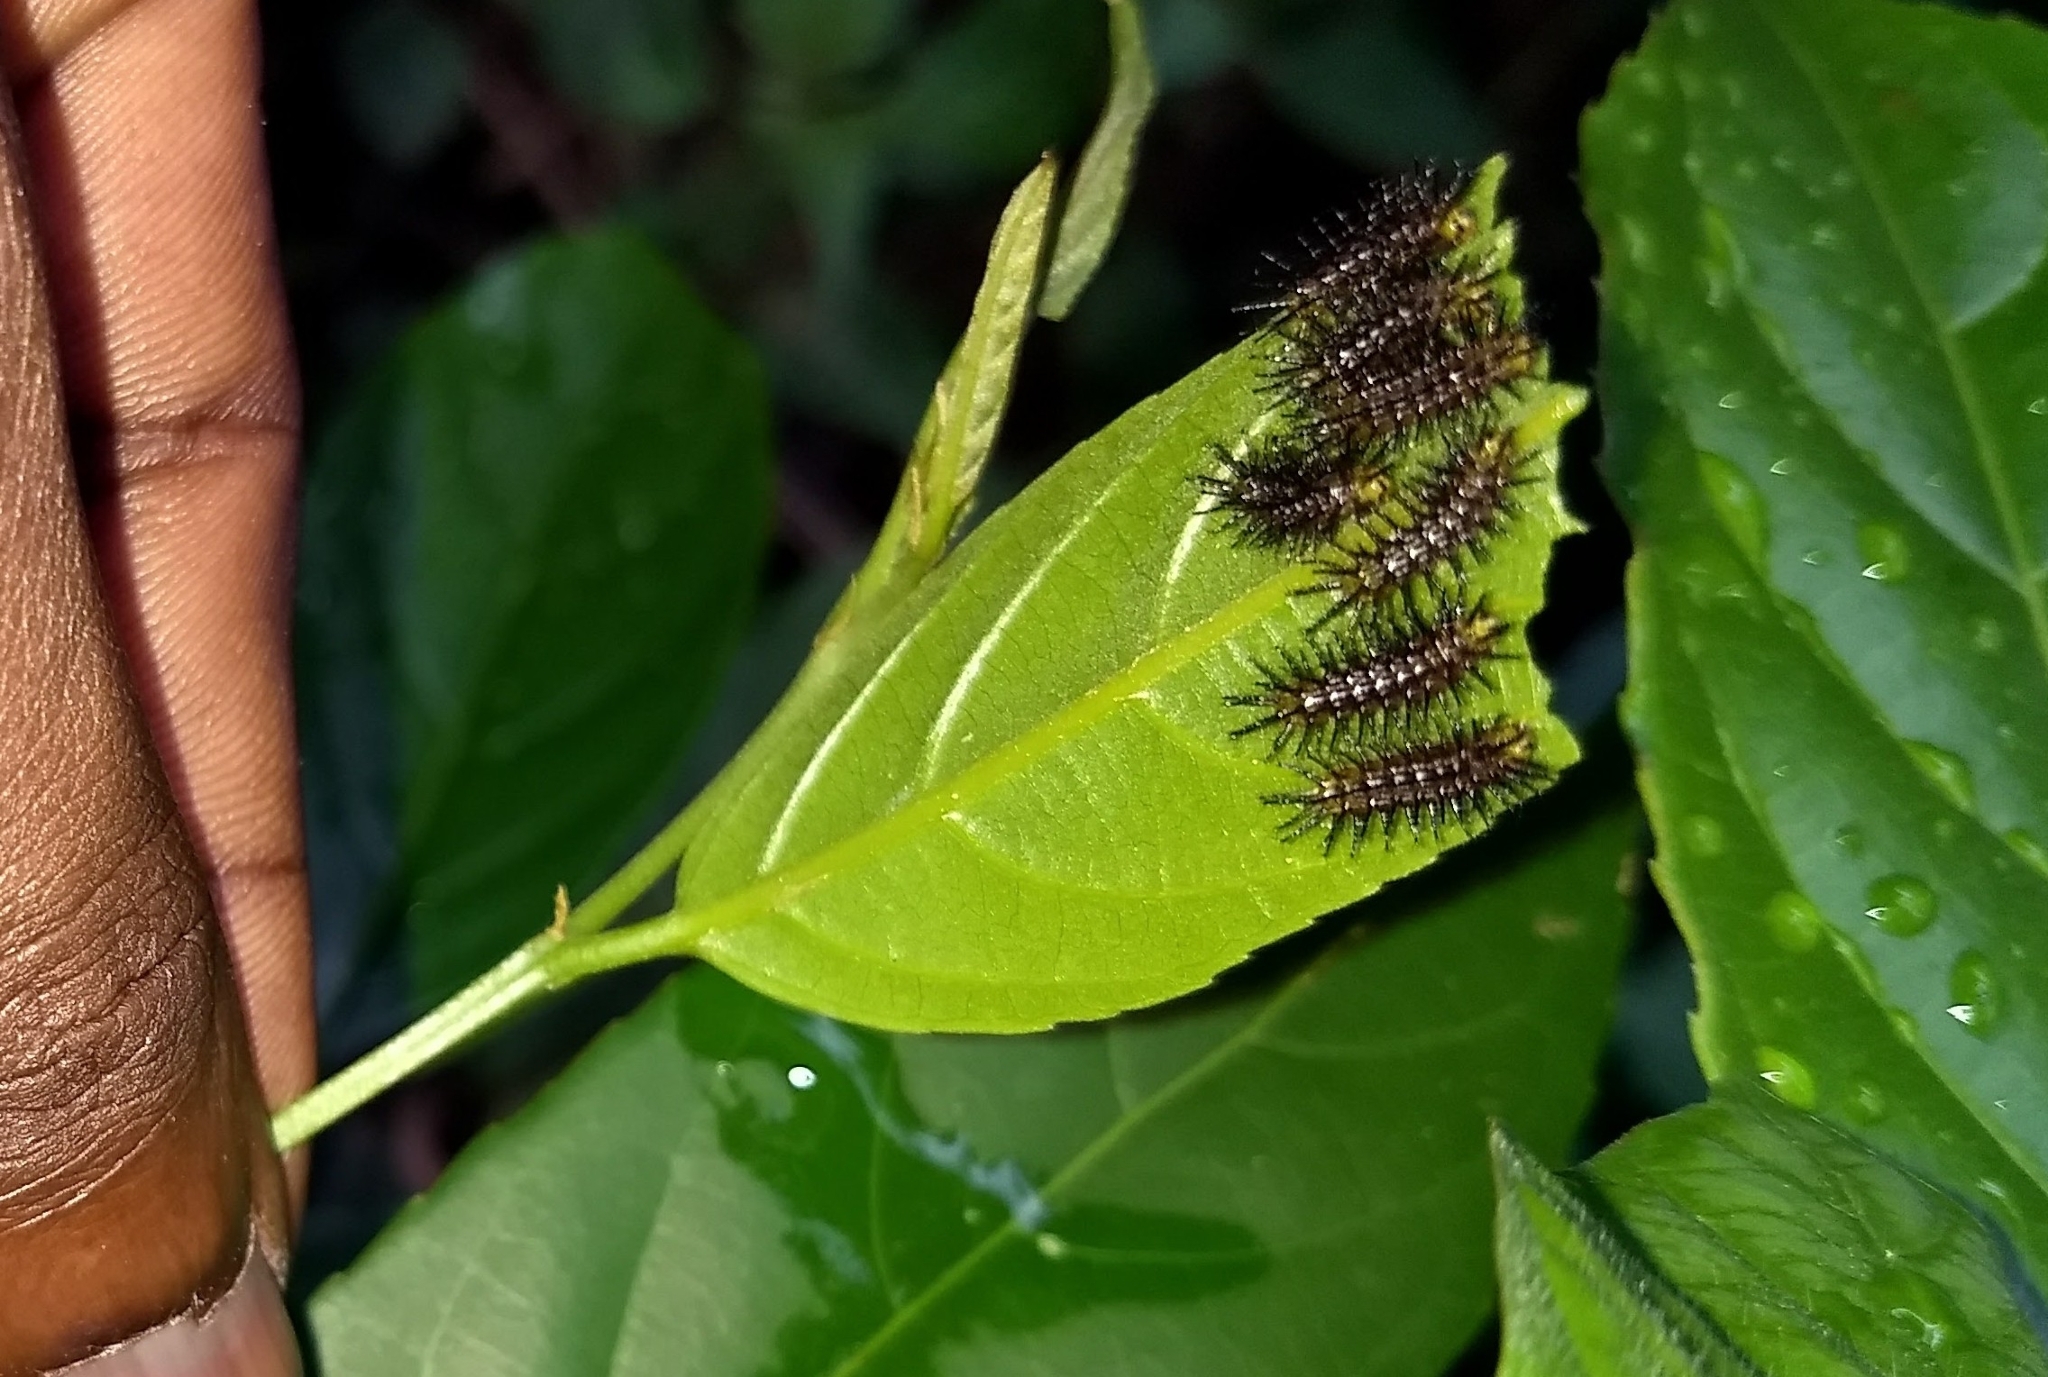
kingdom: Animalia
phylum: Arthropoda
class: Insecta
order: Lepidoptera
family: Nymphalidae
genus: Cirrochroa
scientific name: Cirrochroa thais
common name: Tamil yeoman
